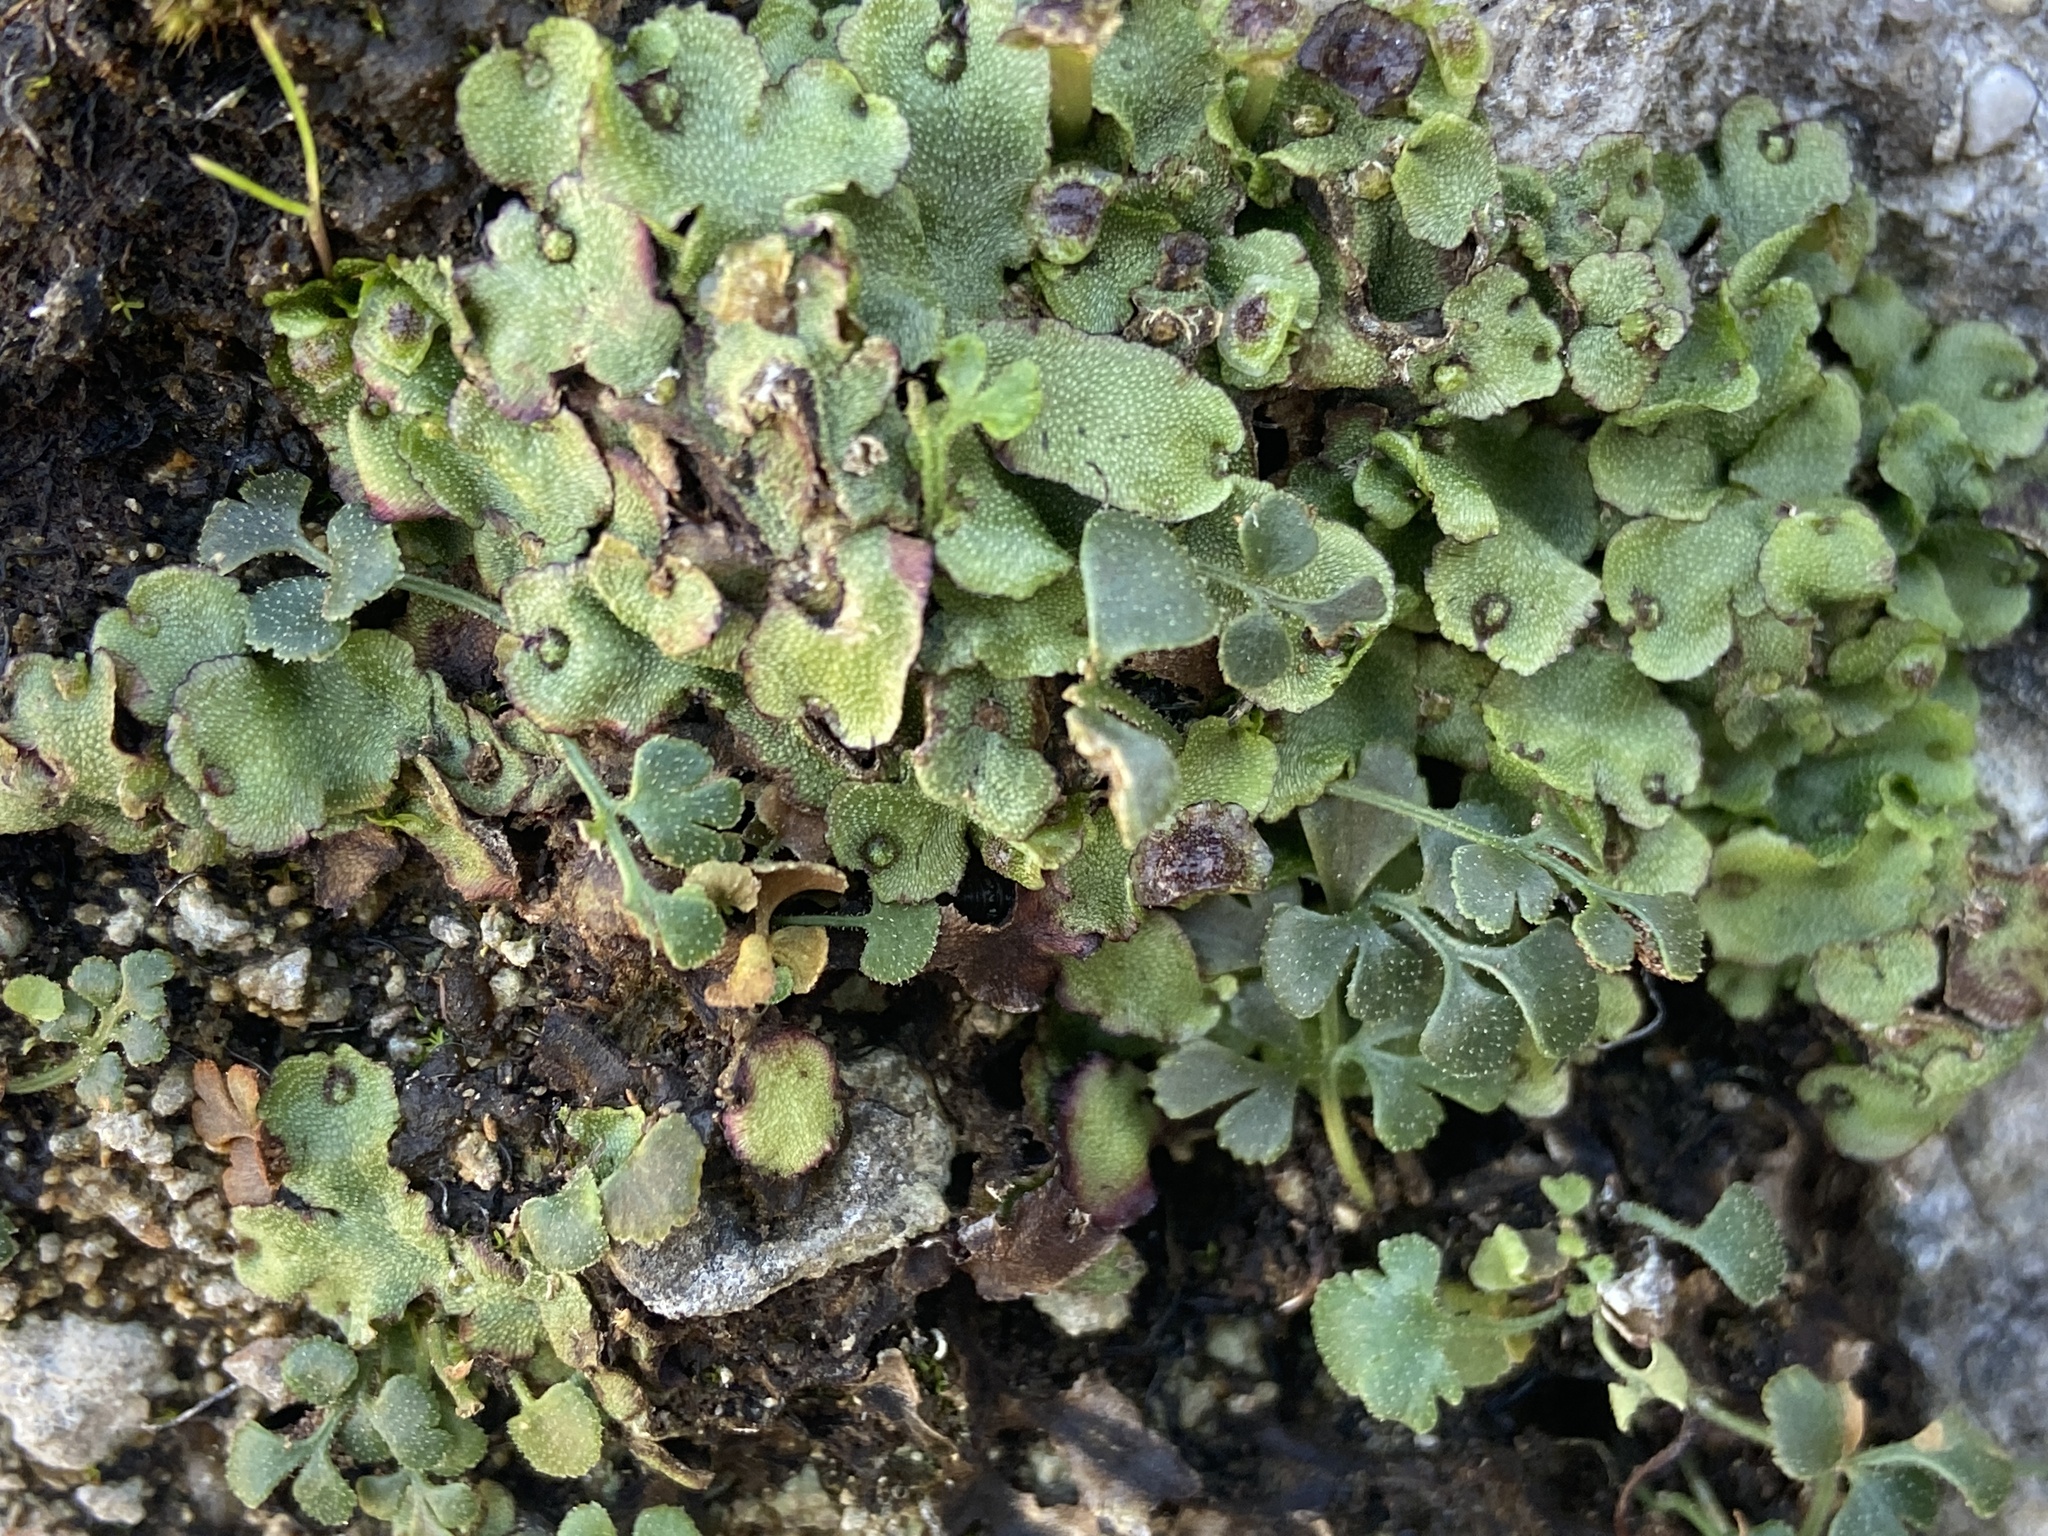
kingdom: Plantae
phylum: Marchantiophyta
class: Marchantiopsida
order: Marchantiales
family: Marchantiaceae
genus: Marchantia
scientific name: Marchantia quadrata
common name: Narrow mushroom-headed liverwort
